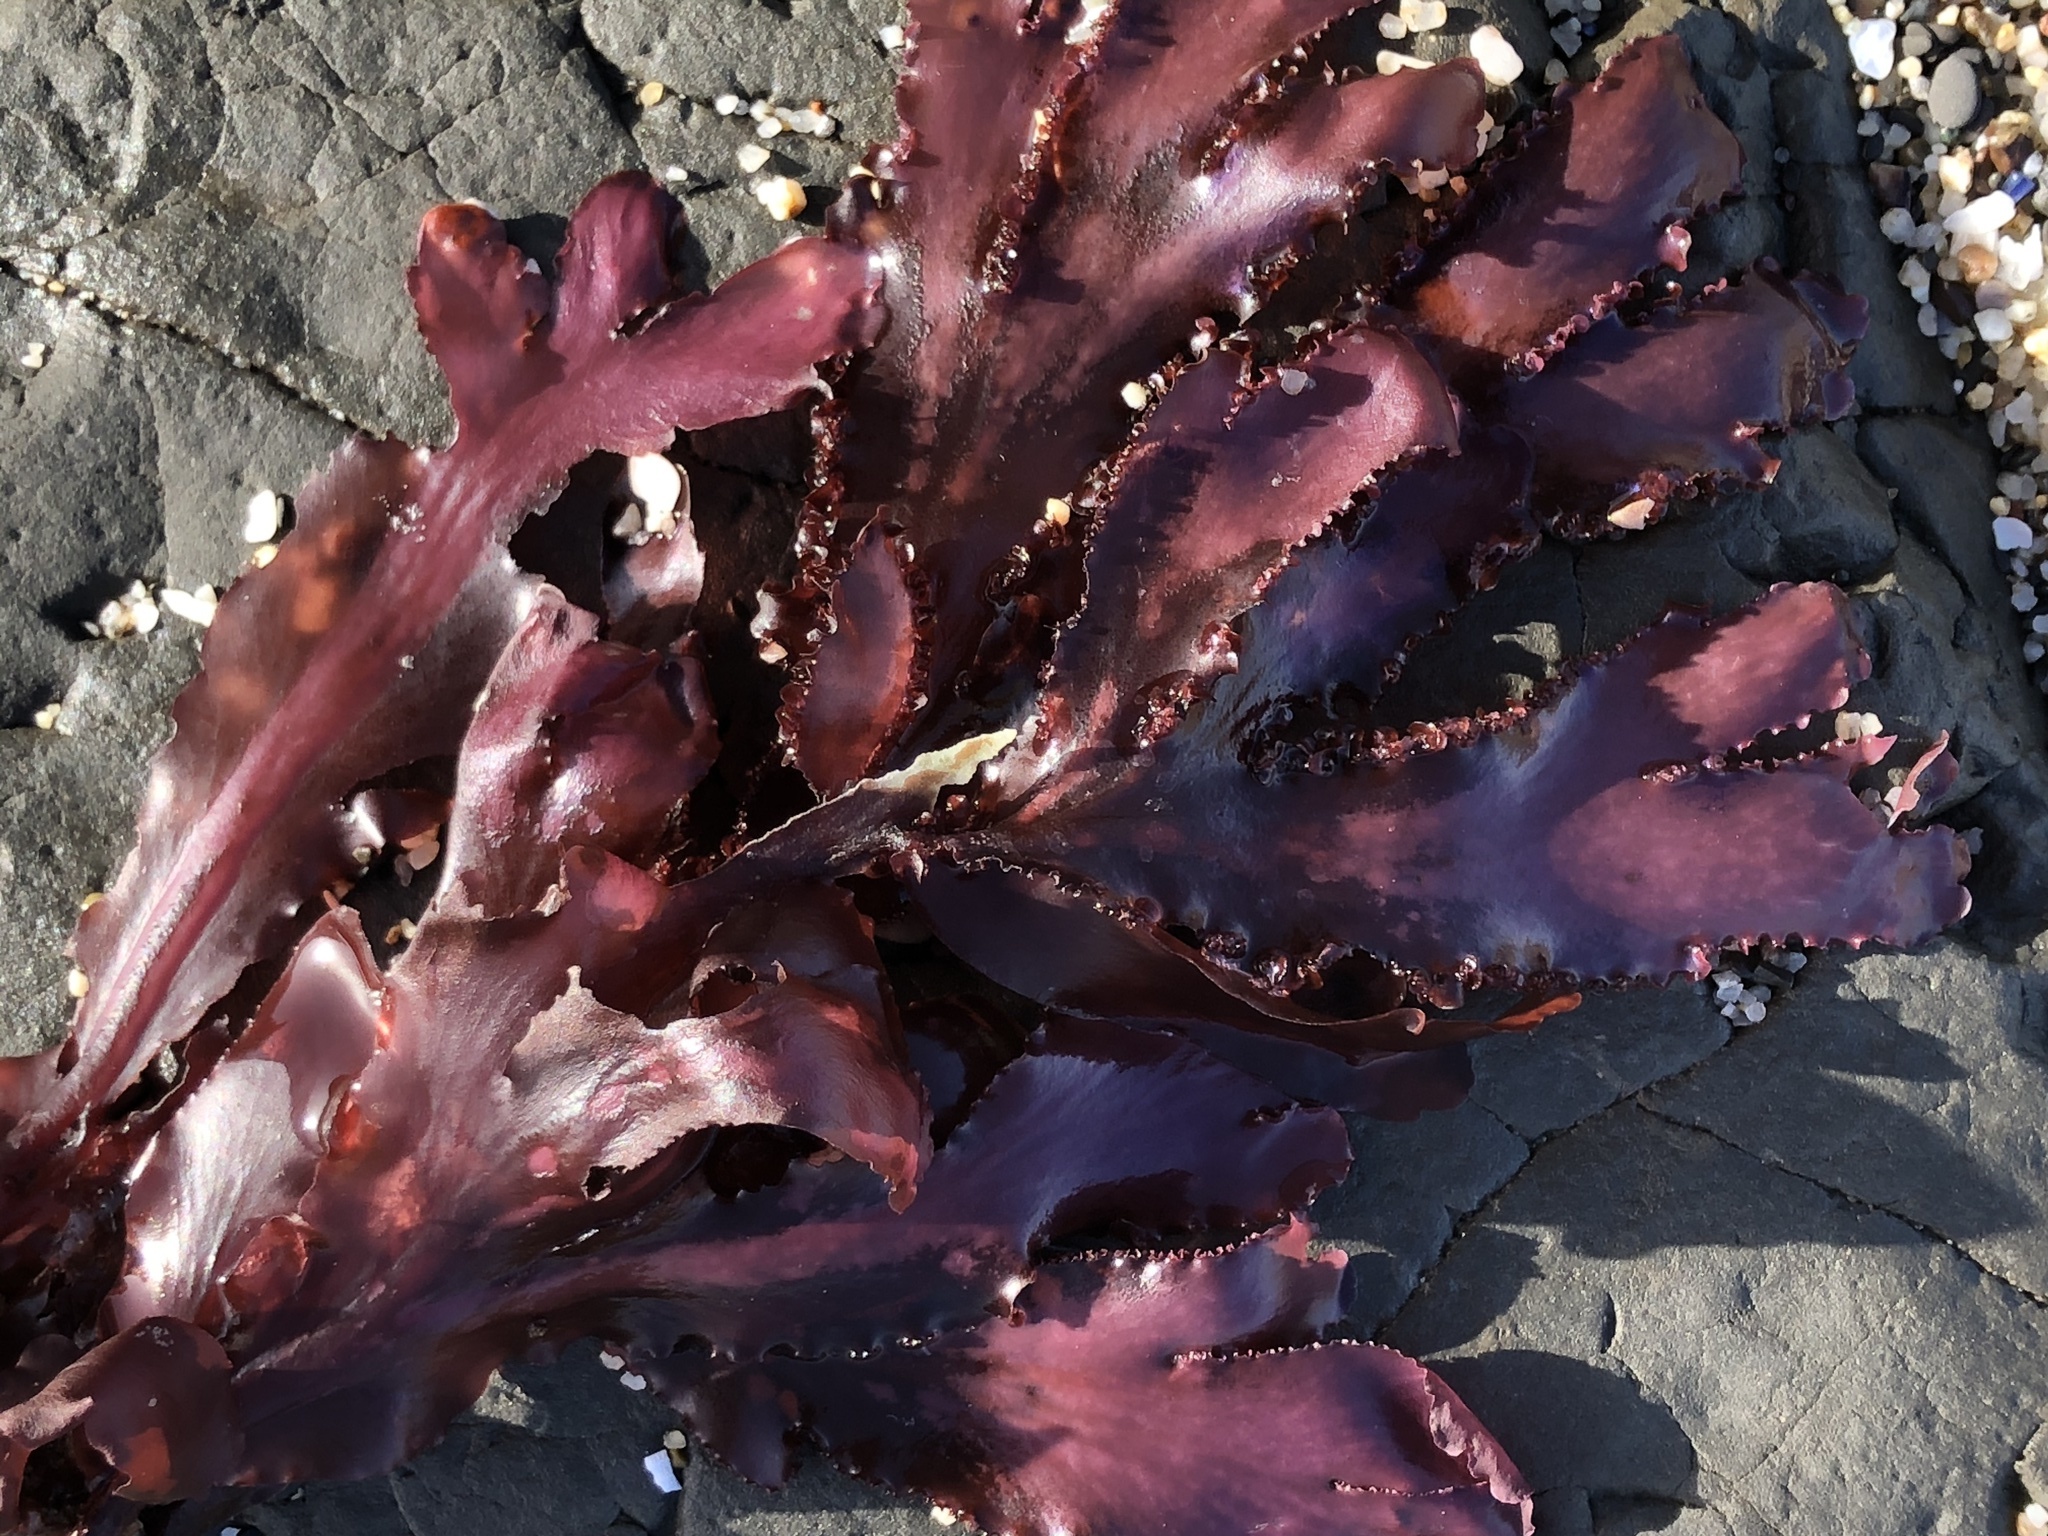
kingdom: Plantae
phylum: Rhodophyta
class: Florideophyceae
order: Ceramiales
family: Delesseriaceae
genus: Cryptopleura
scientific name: Cryptopleura ruprechtiana
